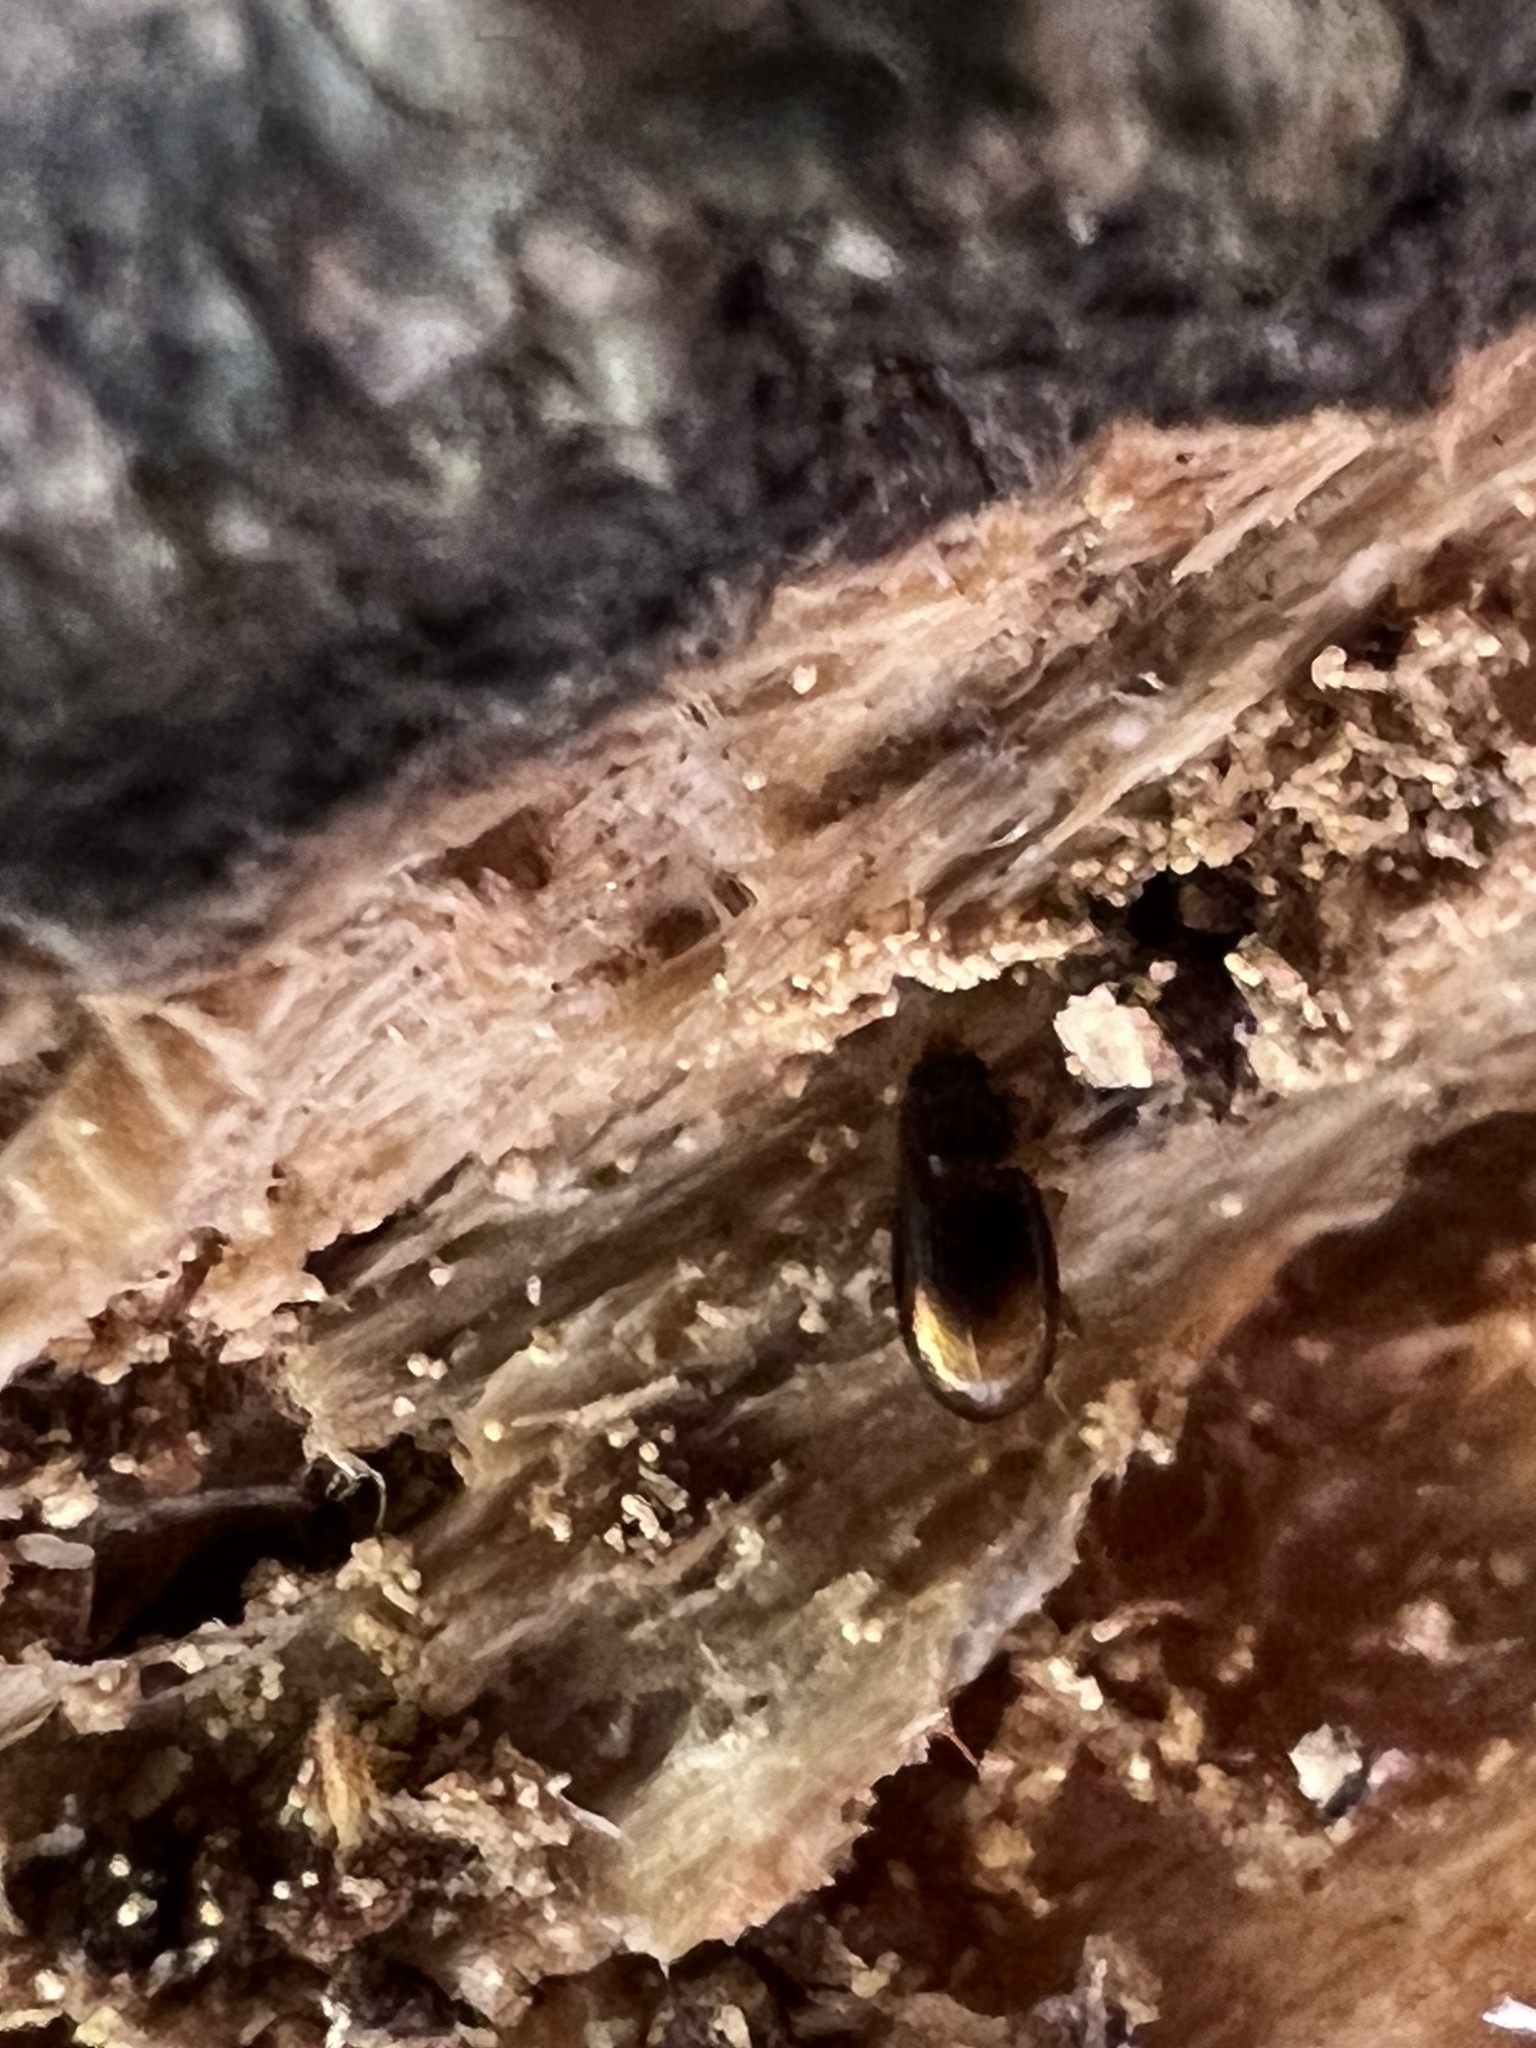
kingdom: Animalia
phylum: Arthropoda
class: Insecta
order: Coleoptera
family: Carabidae
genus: Mioptachys
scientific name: Mioptachys flavicauda
